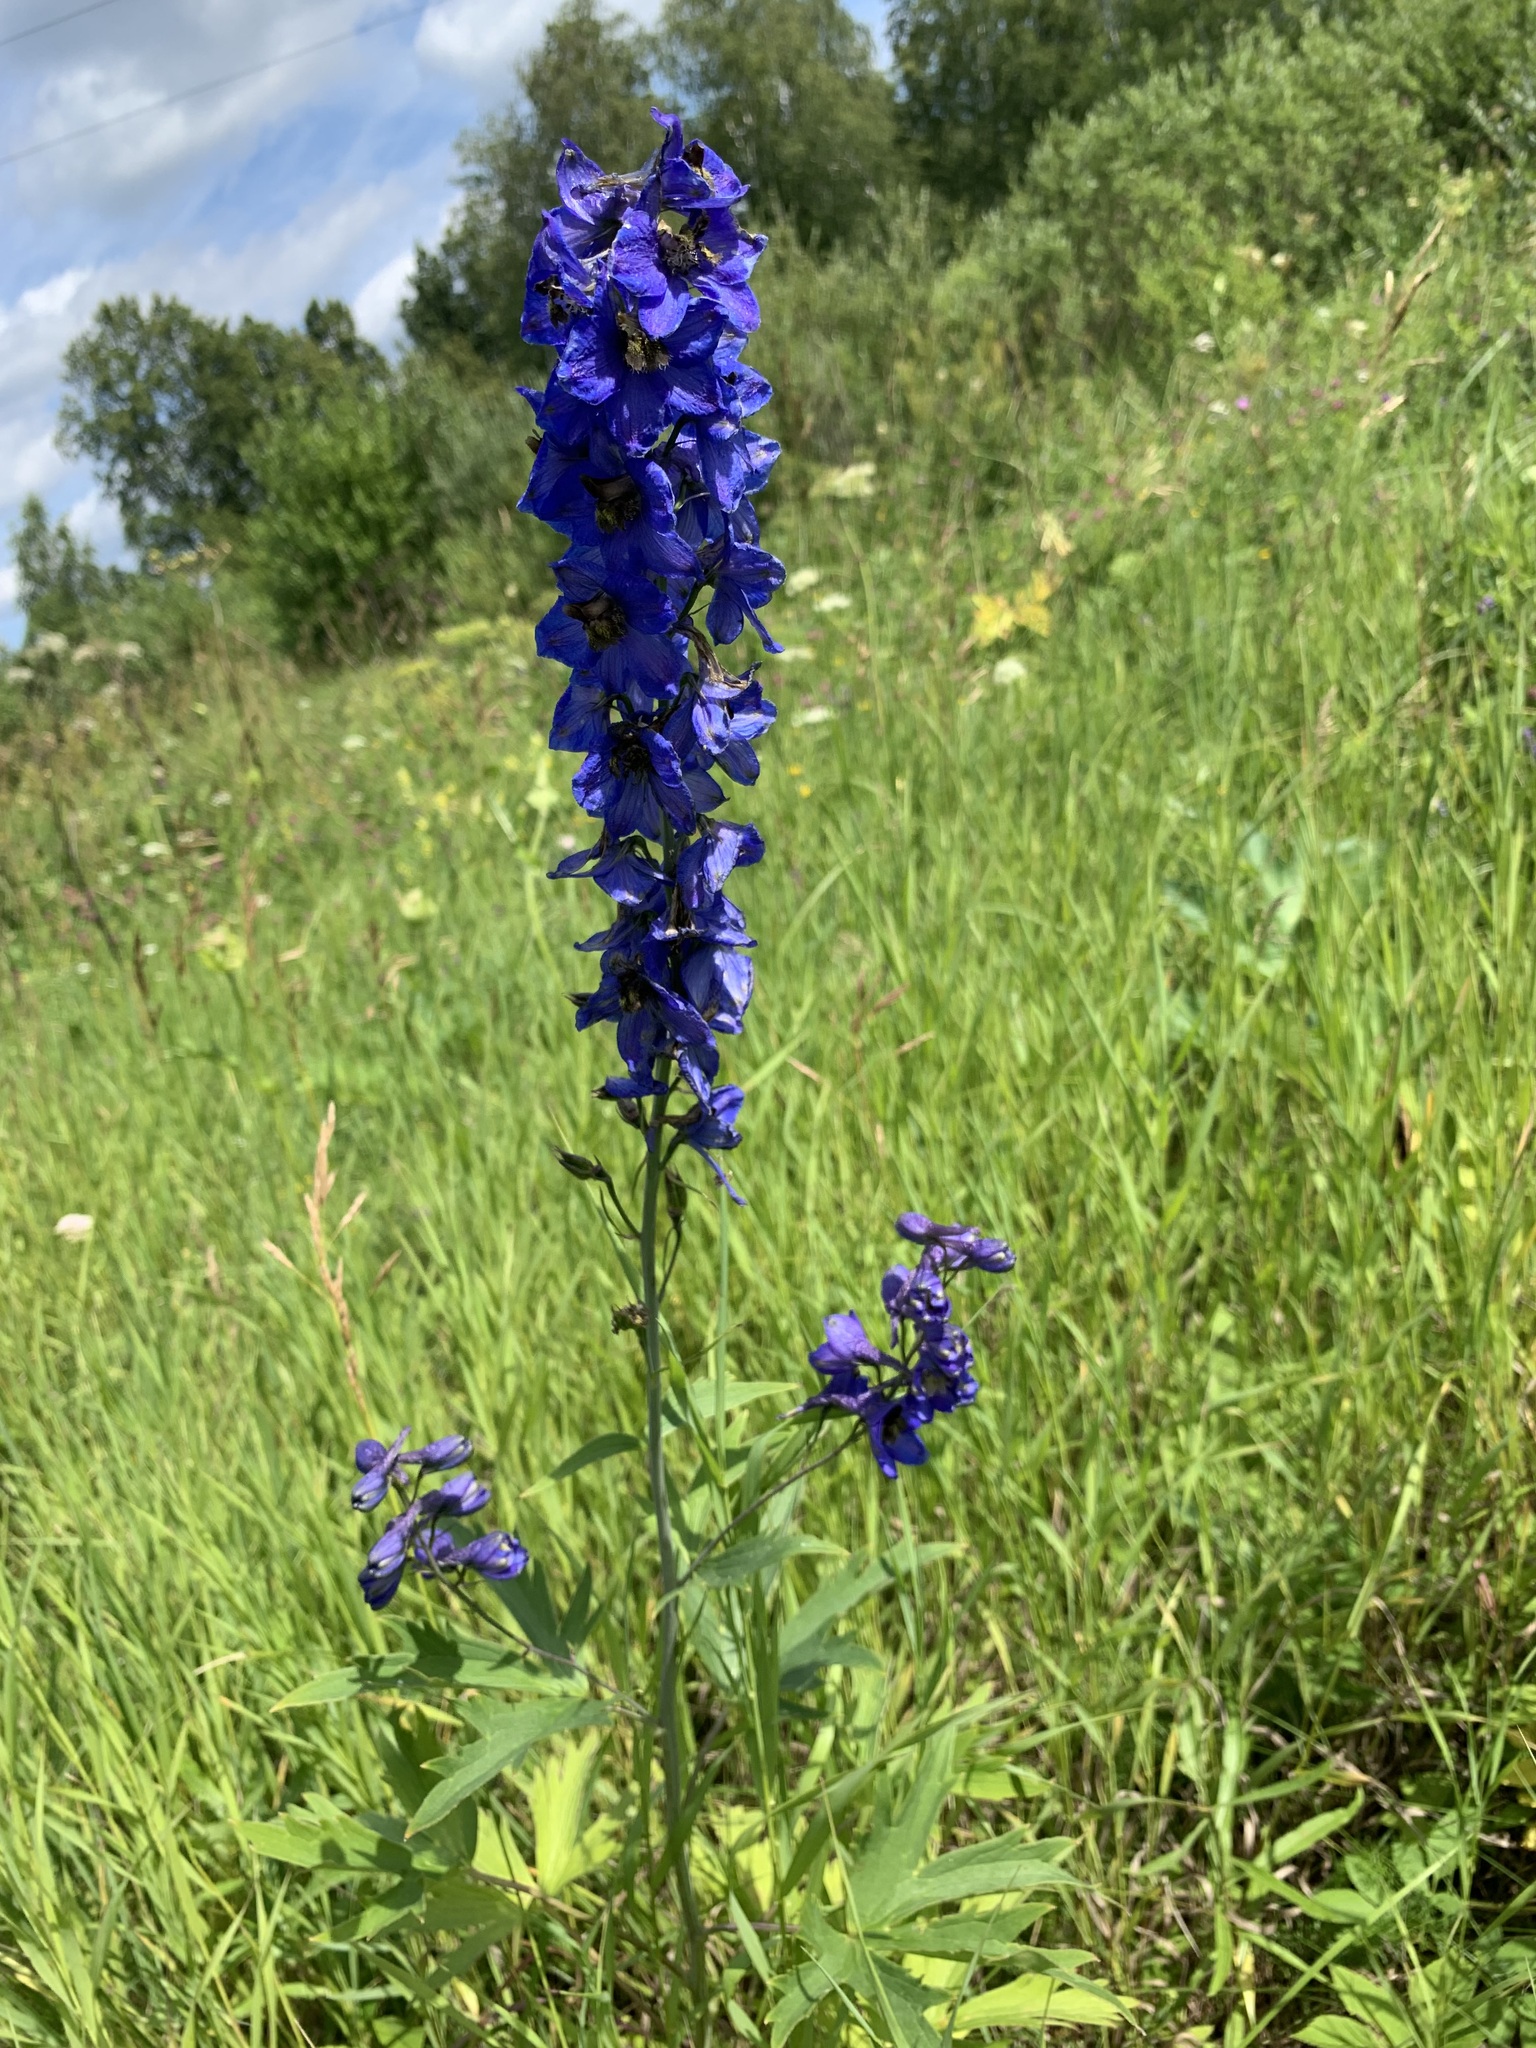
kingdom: Plantae
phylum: Tracheophyta
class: Magnoliopsida
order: Ranunculales
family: Ranunculaceae
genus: Delphinium
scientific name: Delphinium cultorum
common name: Garden delphinium
